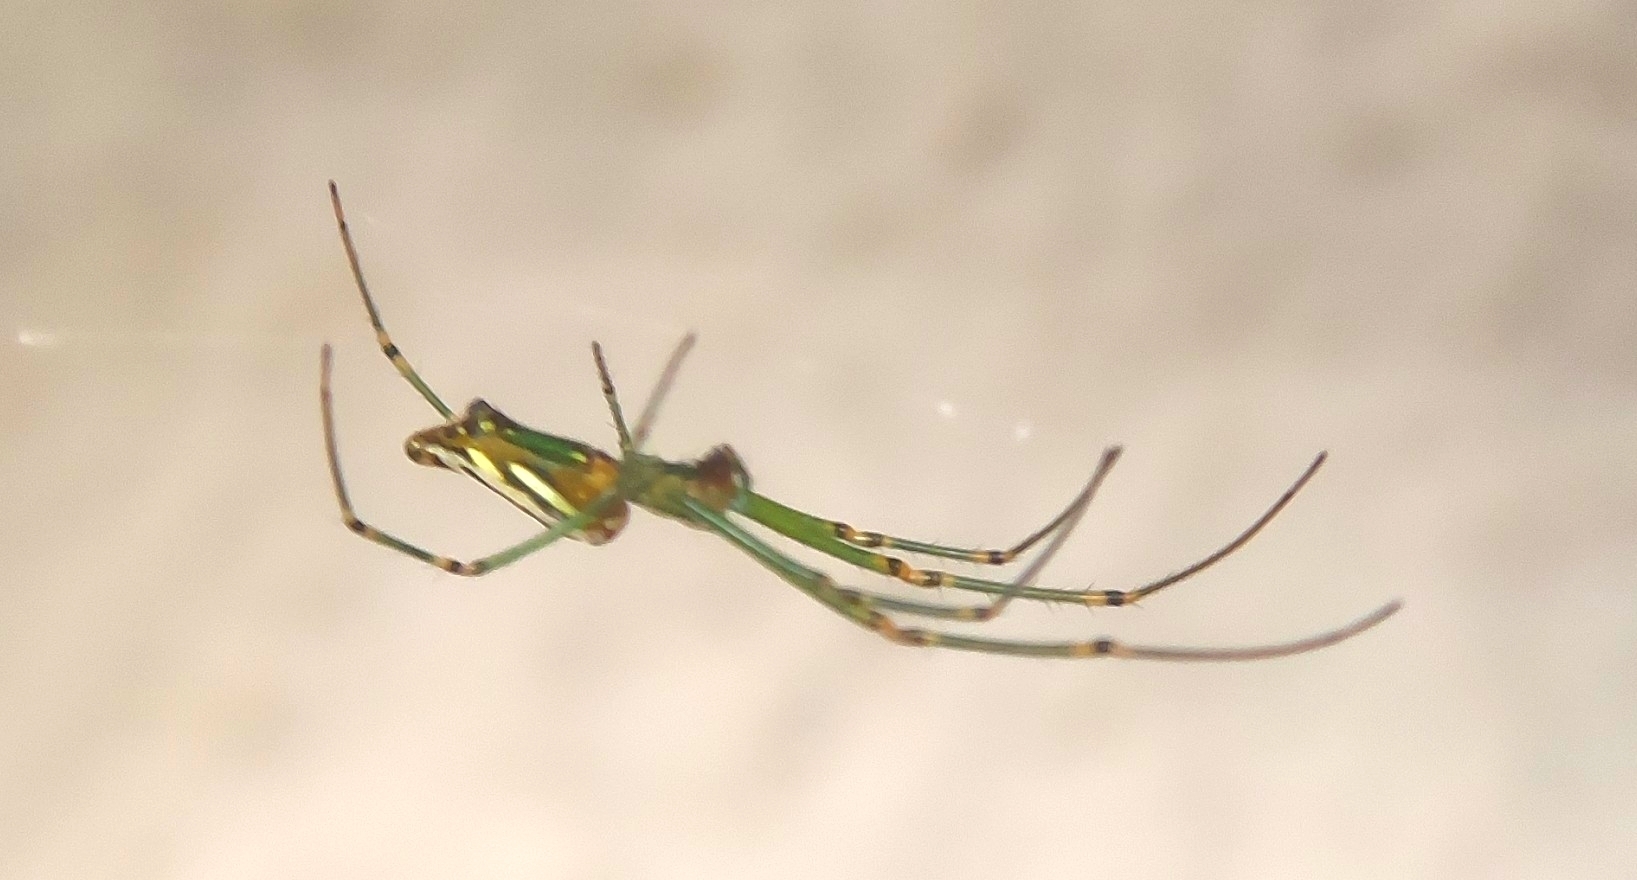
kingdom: Animalia
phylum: Arthropoda
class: Arachnida
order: Araneae
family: Tetragnathidae
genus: Leucauge
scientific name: Leucauge decorata
